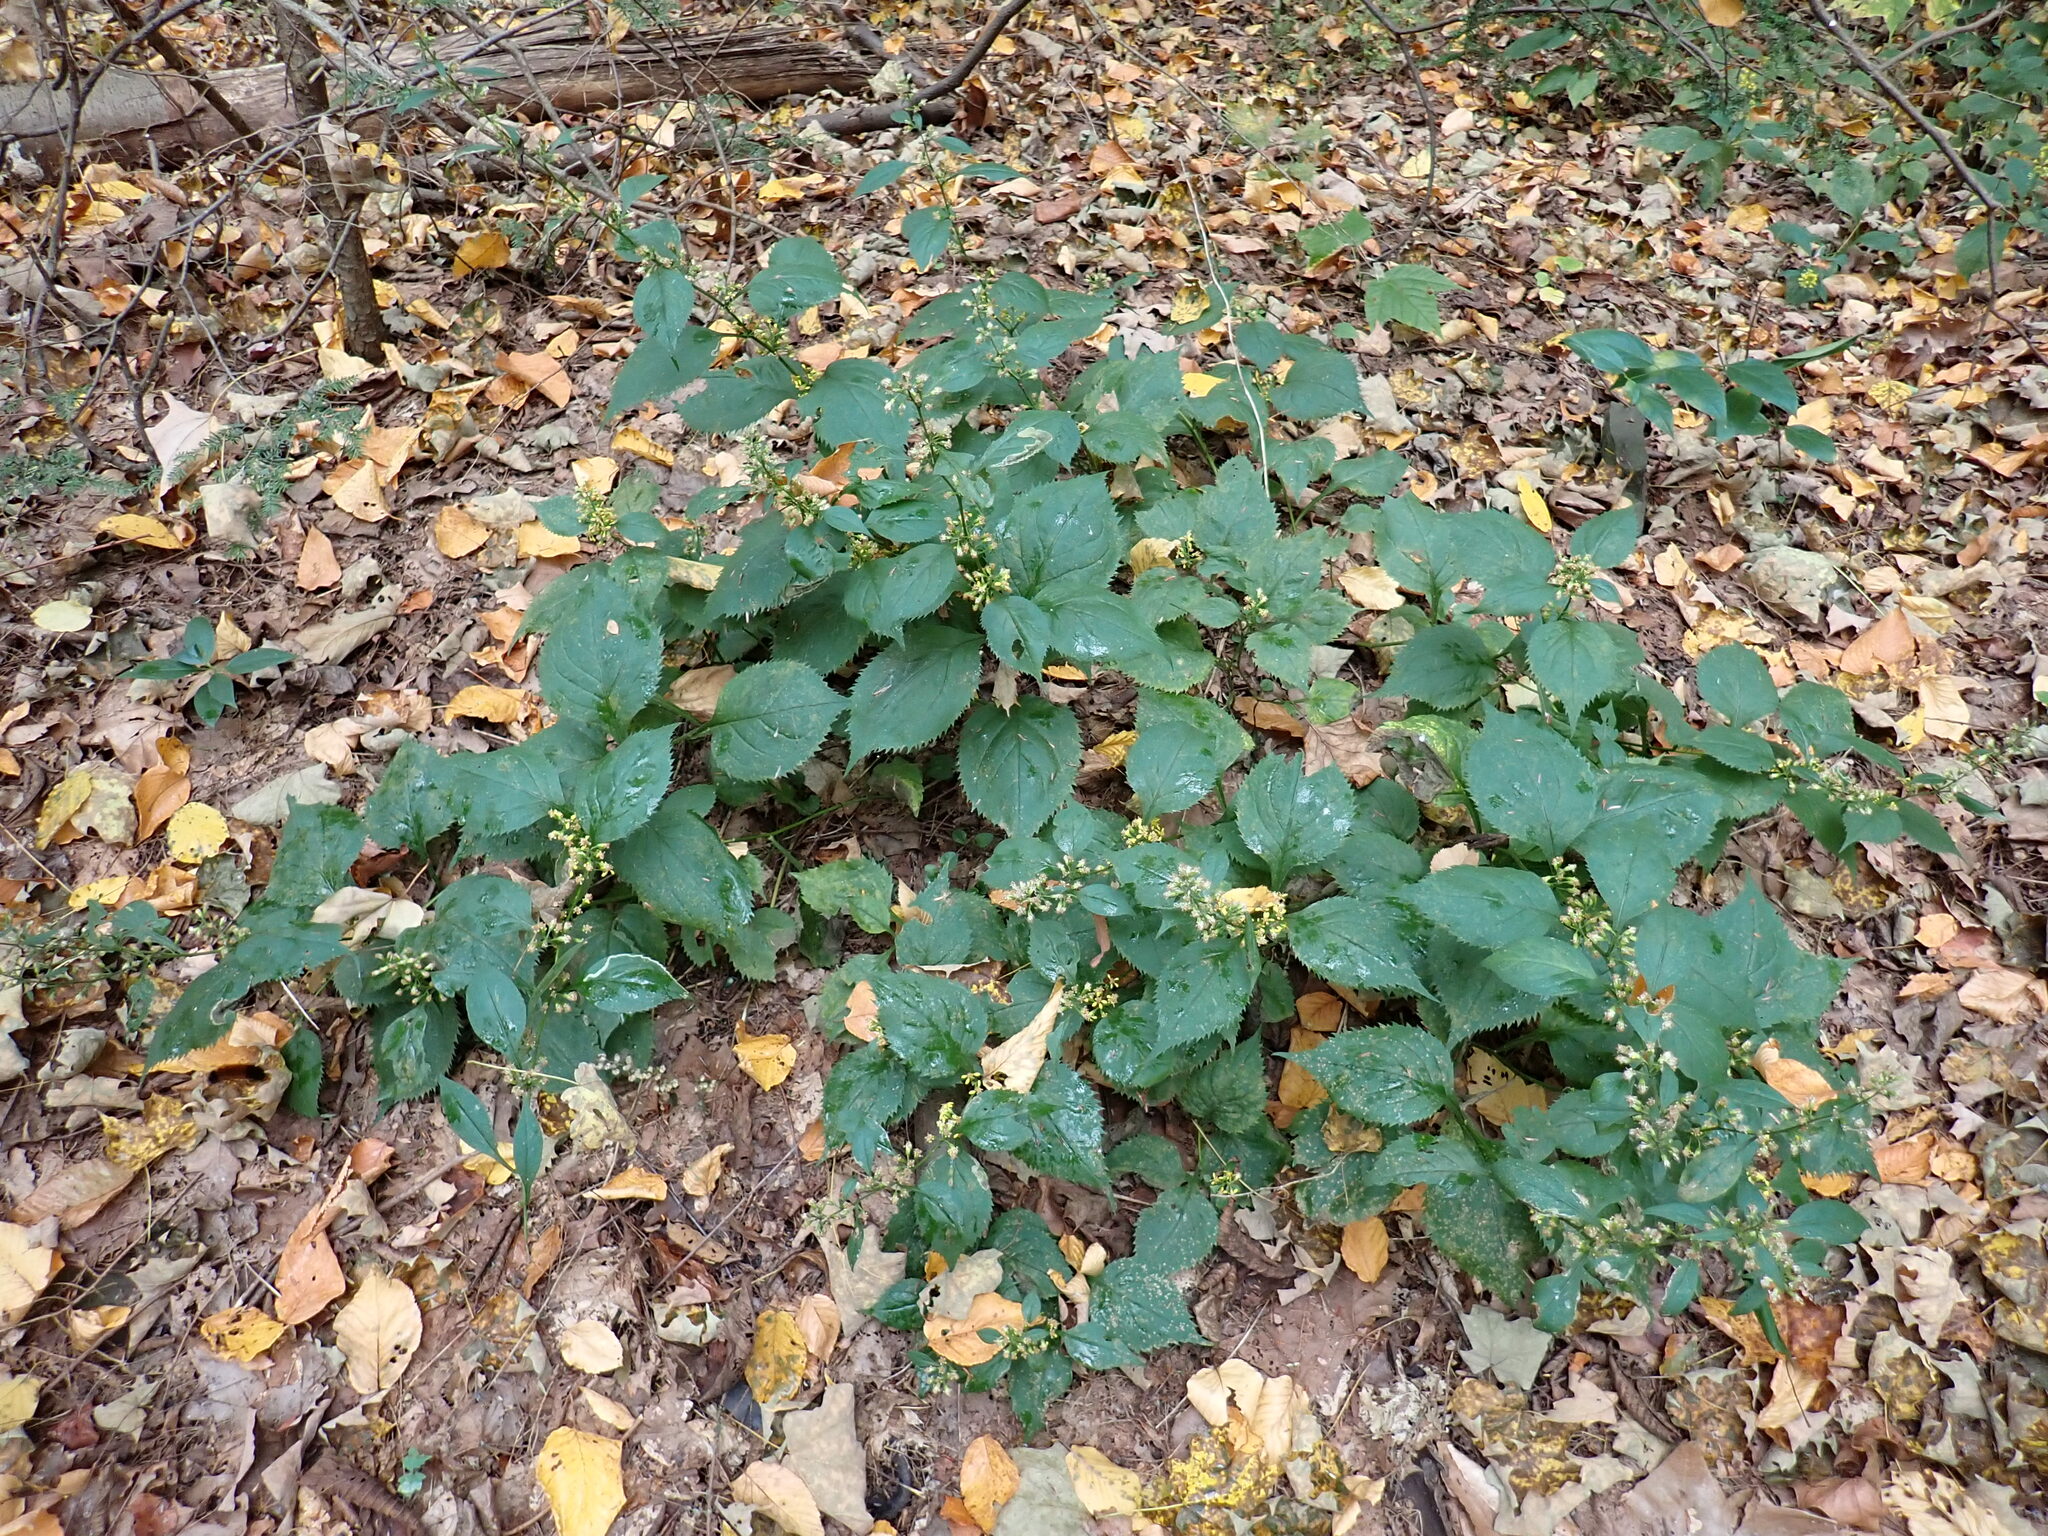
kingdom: Plantae
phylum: Tracheophyta
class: Magnoliopsida
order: Asterales
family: Asteraceae
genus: Solidago
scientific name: Solidago flexicaulis
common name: Zig-zag goldenrod
